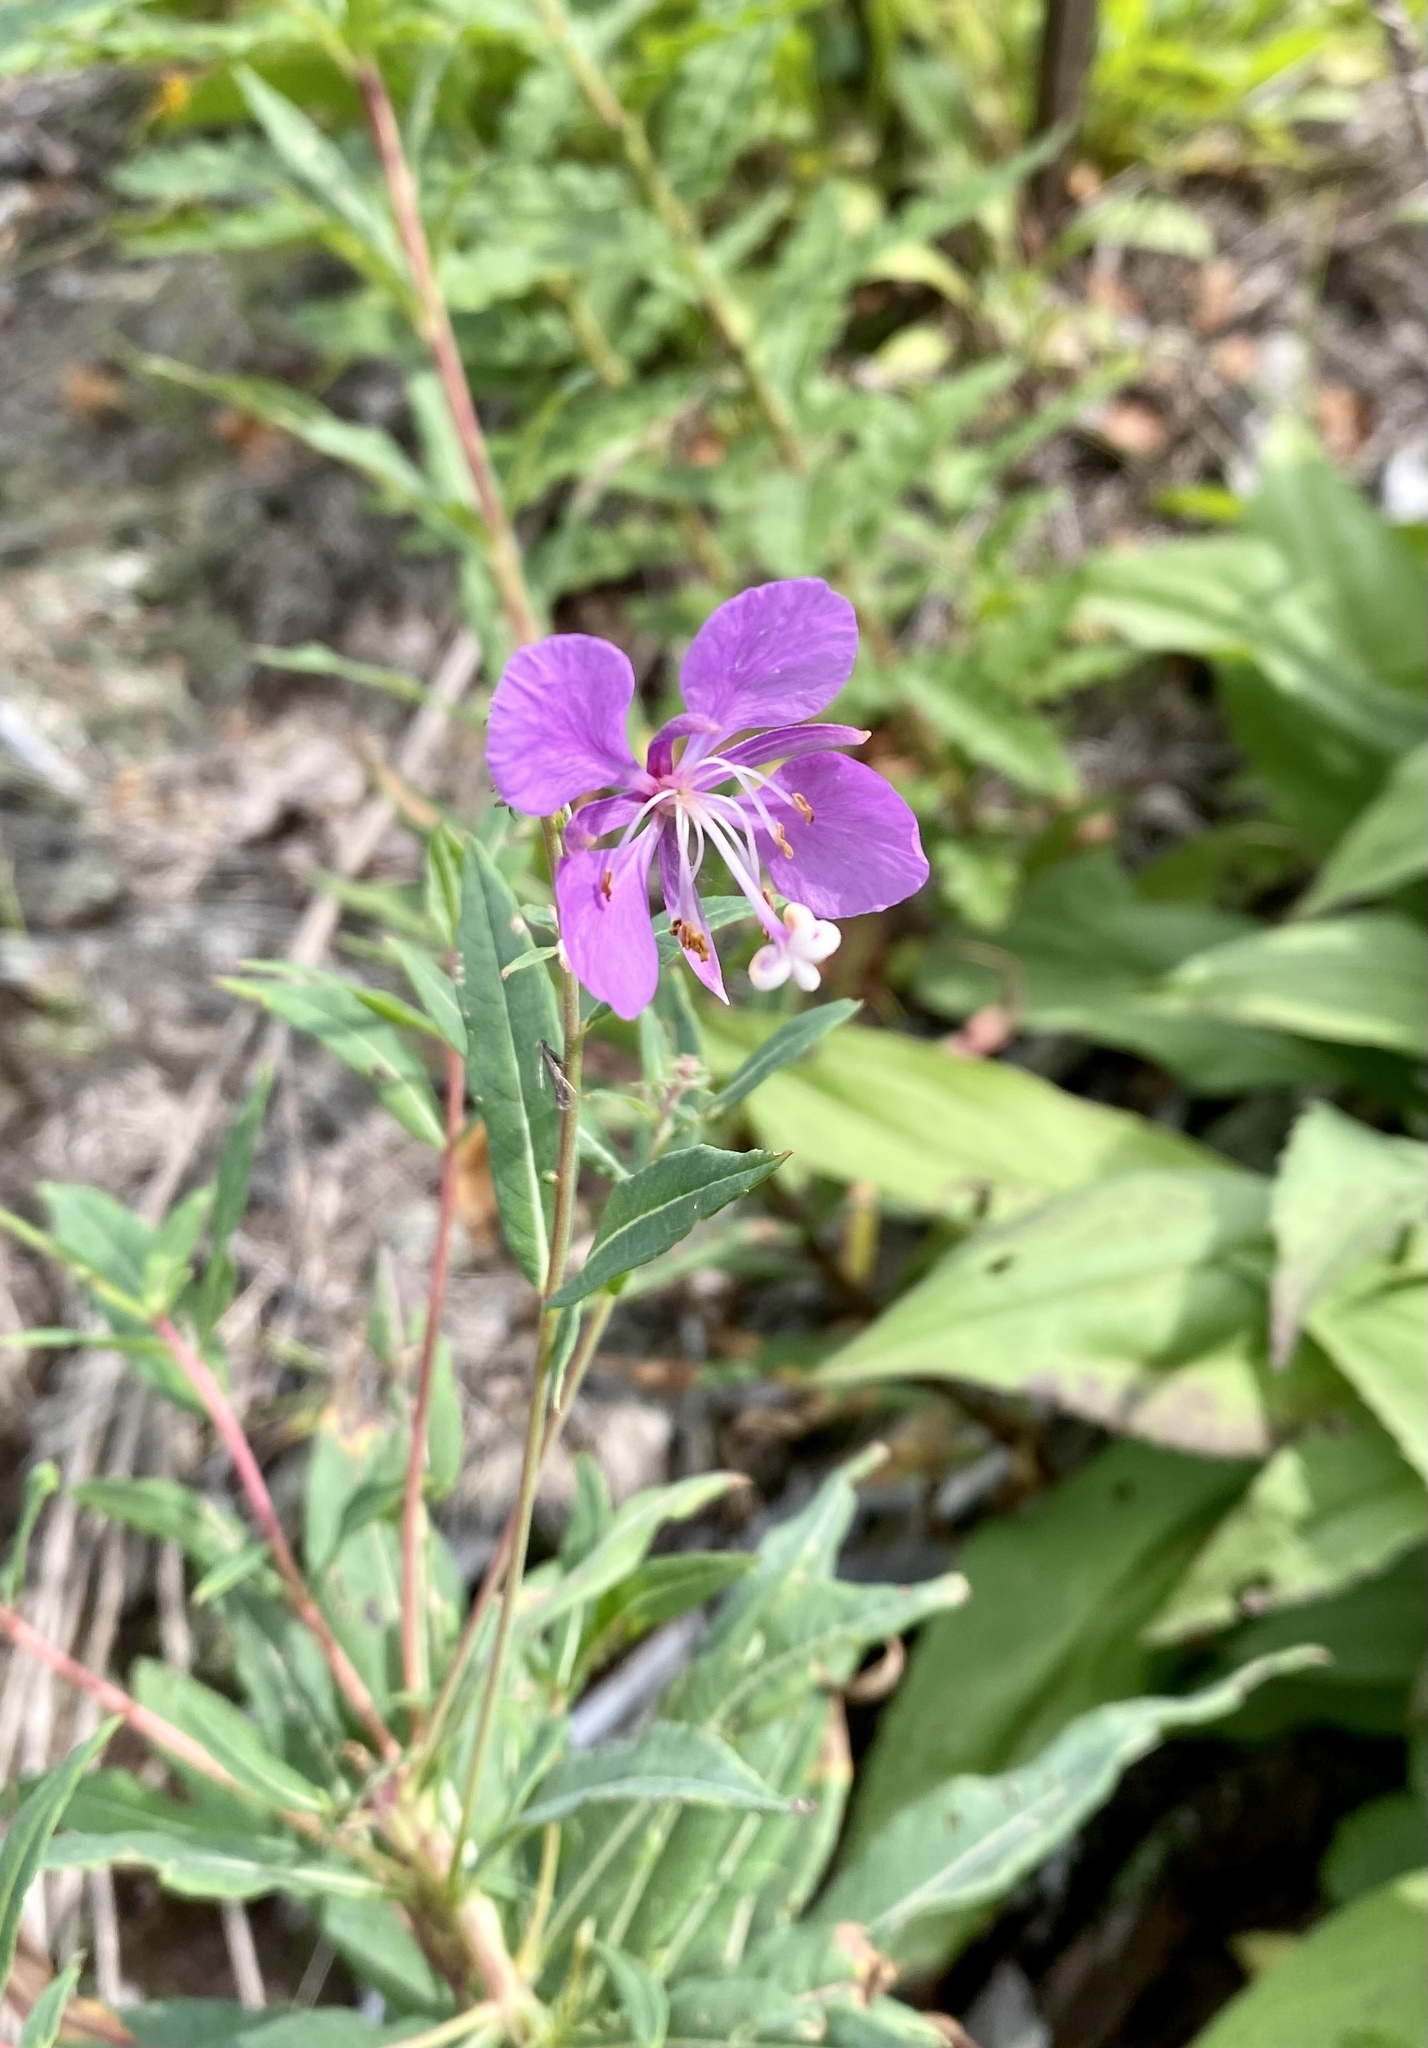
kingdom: Plantae
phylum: Tracheophyta
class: Magnoliopsida
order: Myrtales
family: Onagraceae
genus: Chamaenerion
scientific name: Chamaenerion angustifolium
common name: Fireweed
